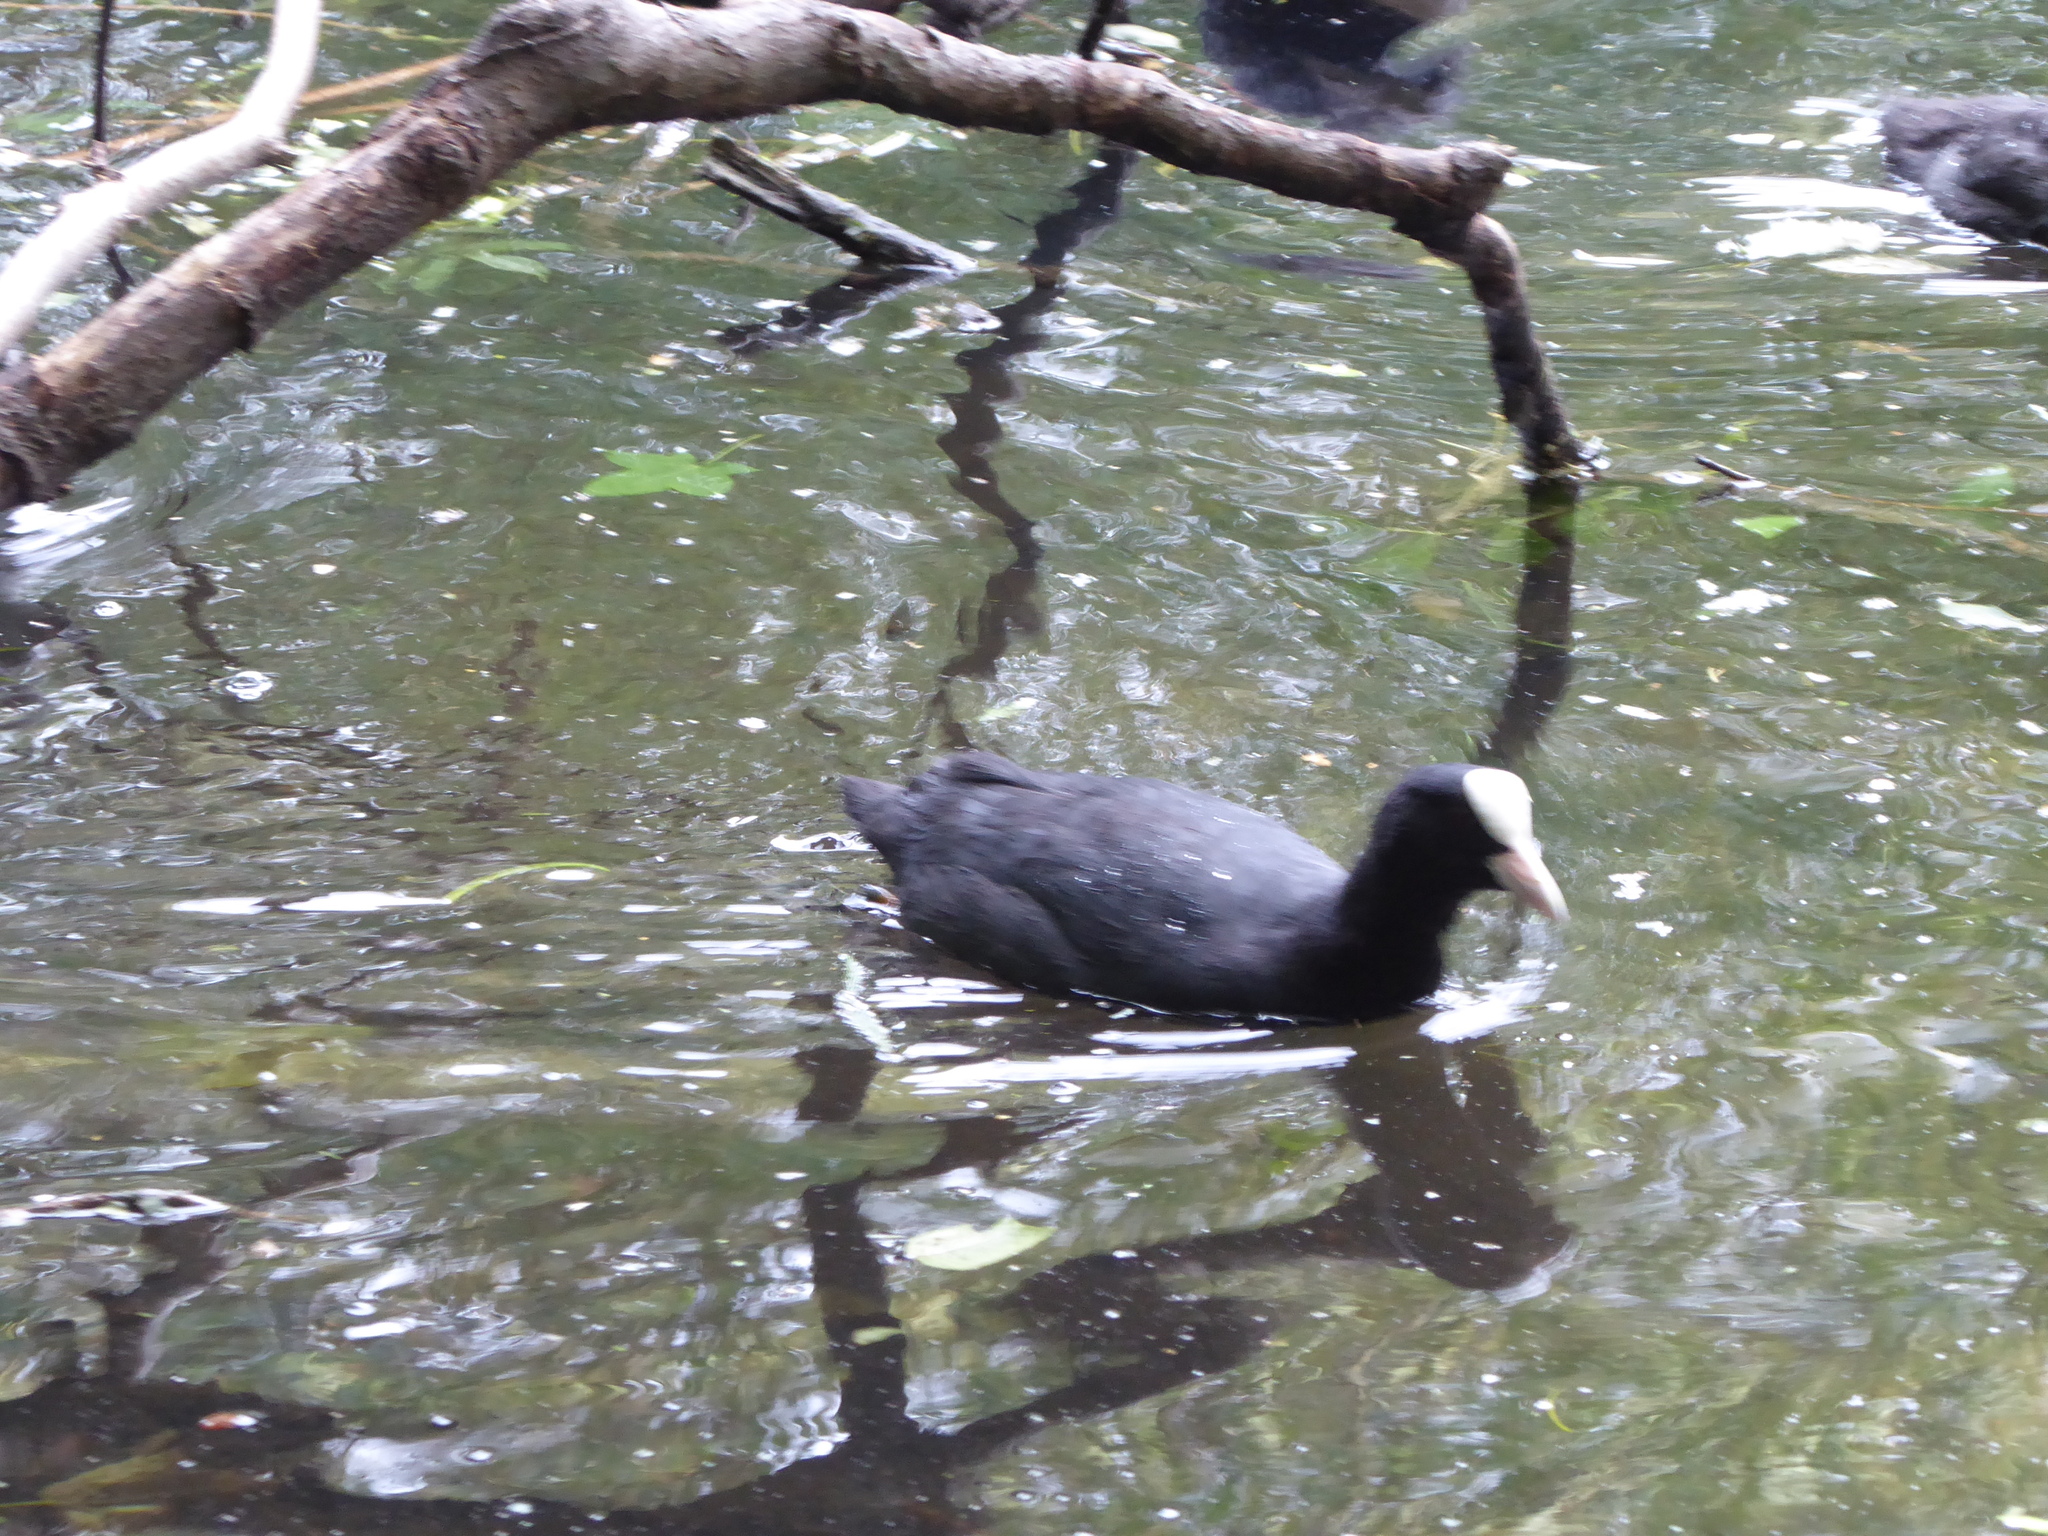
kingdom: Animalia
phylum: Chordata
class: Aves
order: Gruiformes
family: Rallidae
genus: Fulica
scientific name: Fulica atra
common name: Eurasian coot
